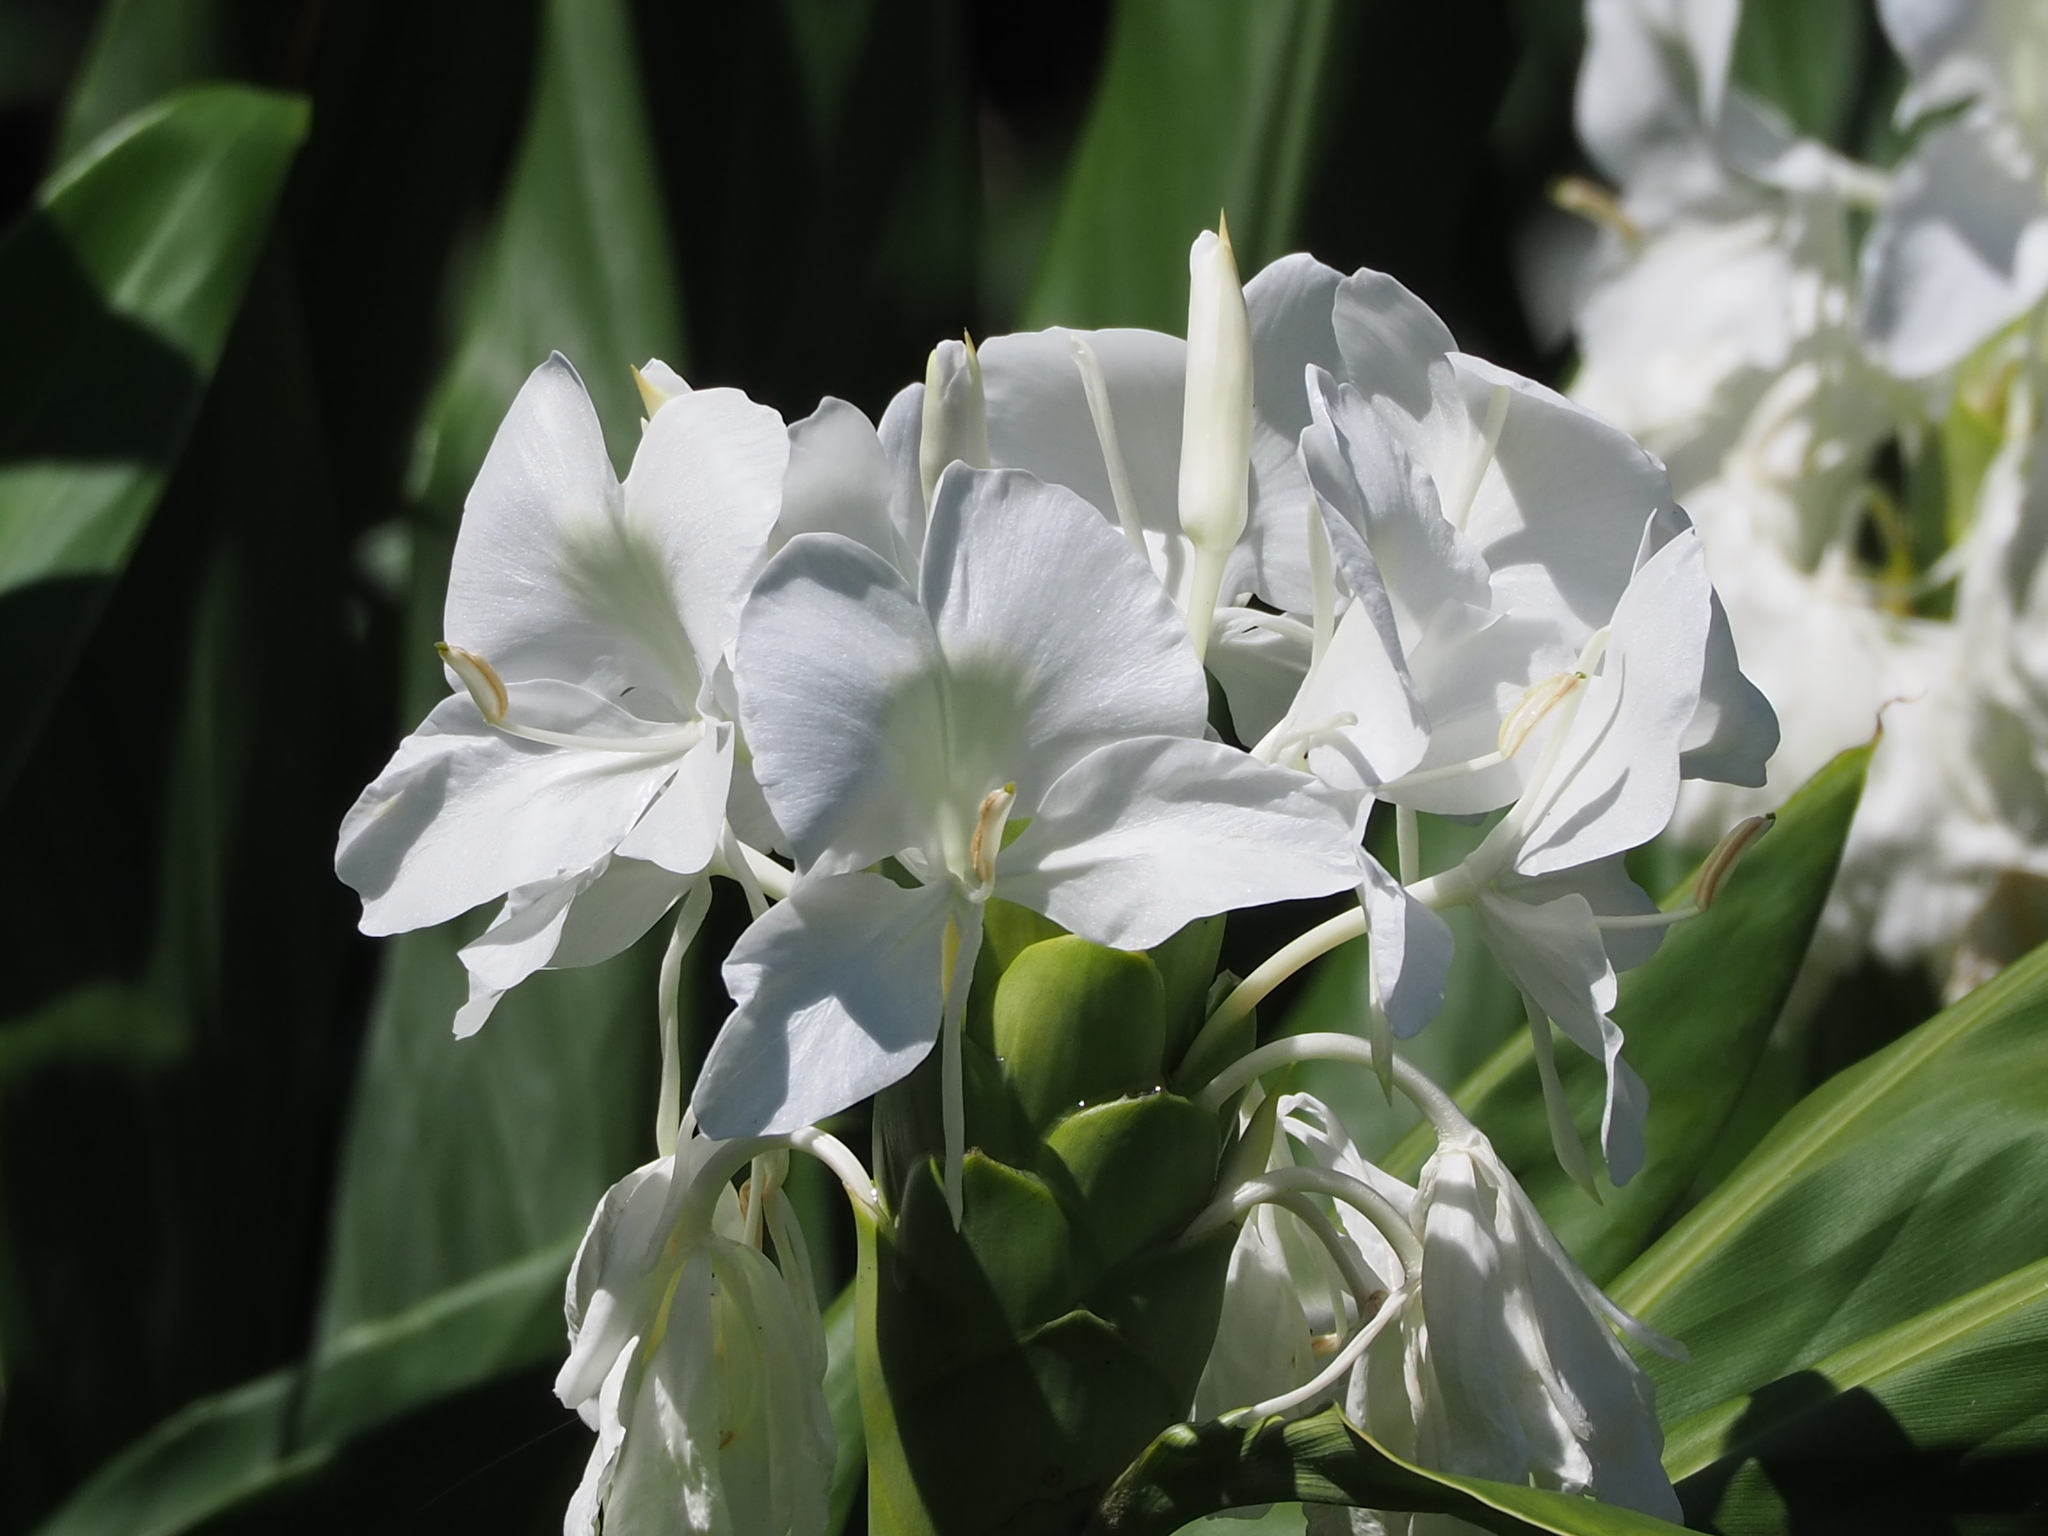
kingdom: Plantae
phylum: Tracheophyta
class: Liliopsida
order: Zingiberales
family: Zingiberaceae
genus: Hedychium
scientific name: Hedychium coronarium
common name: White garland-lily
